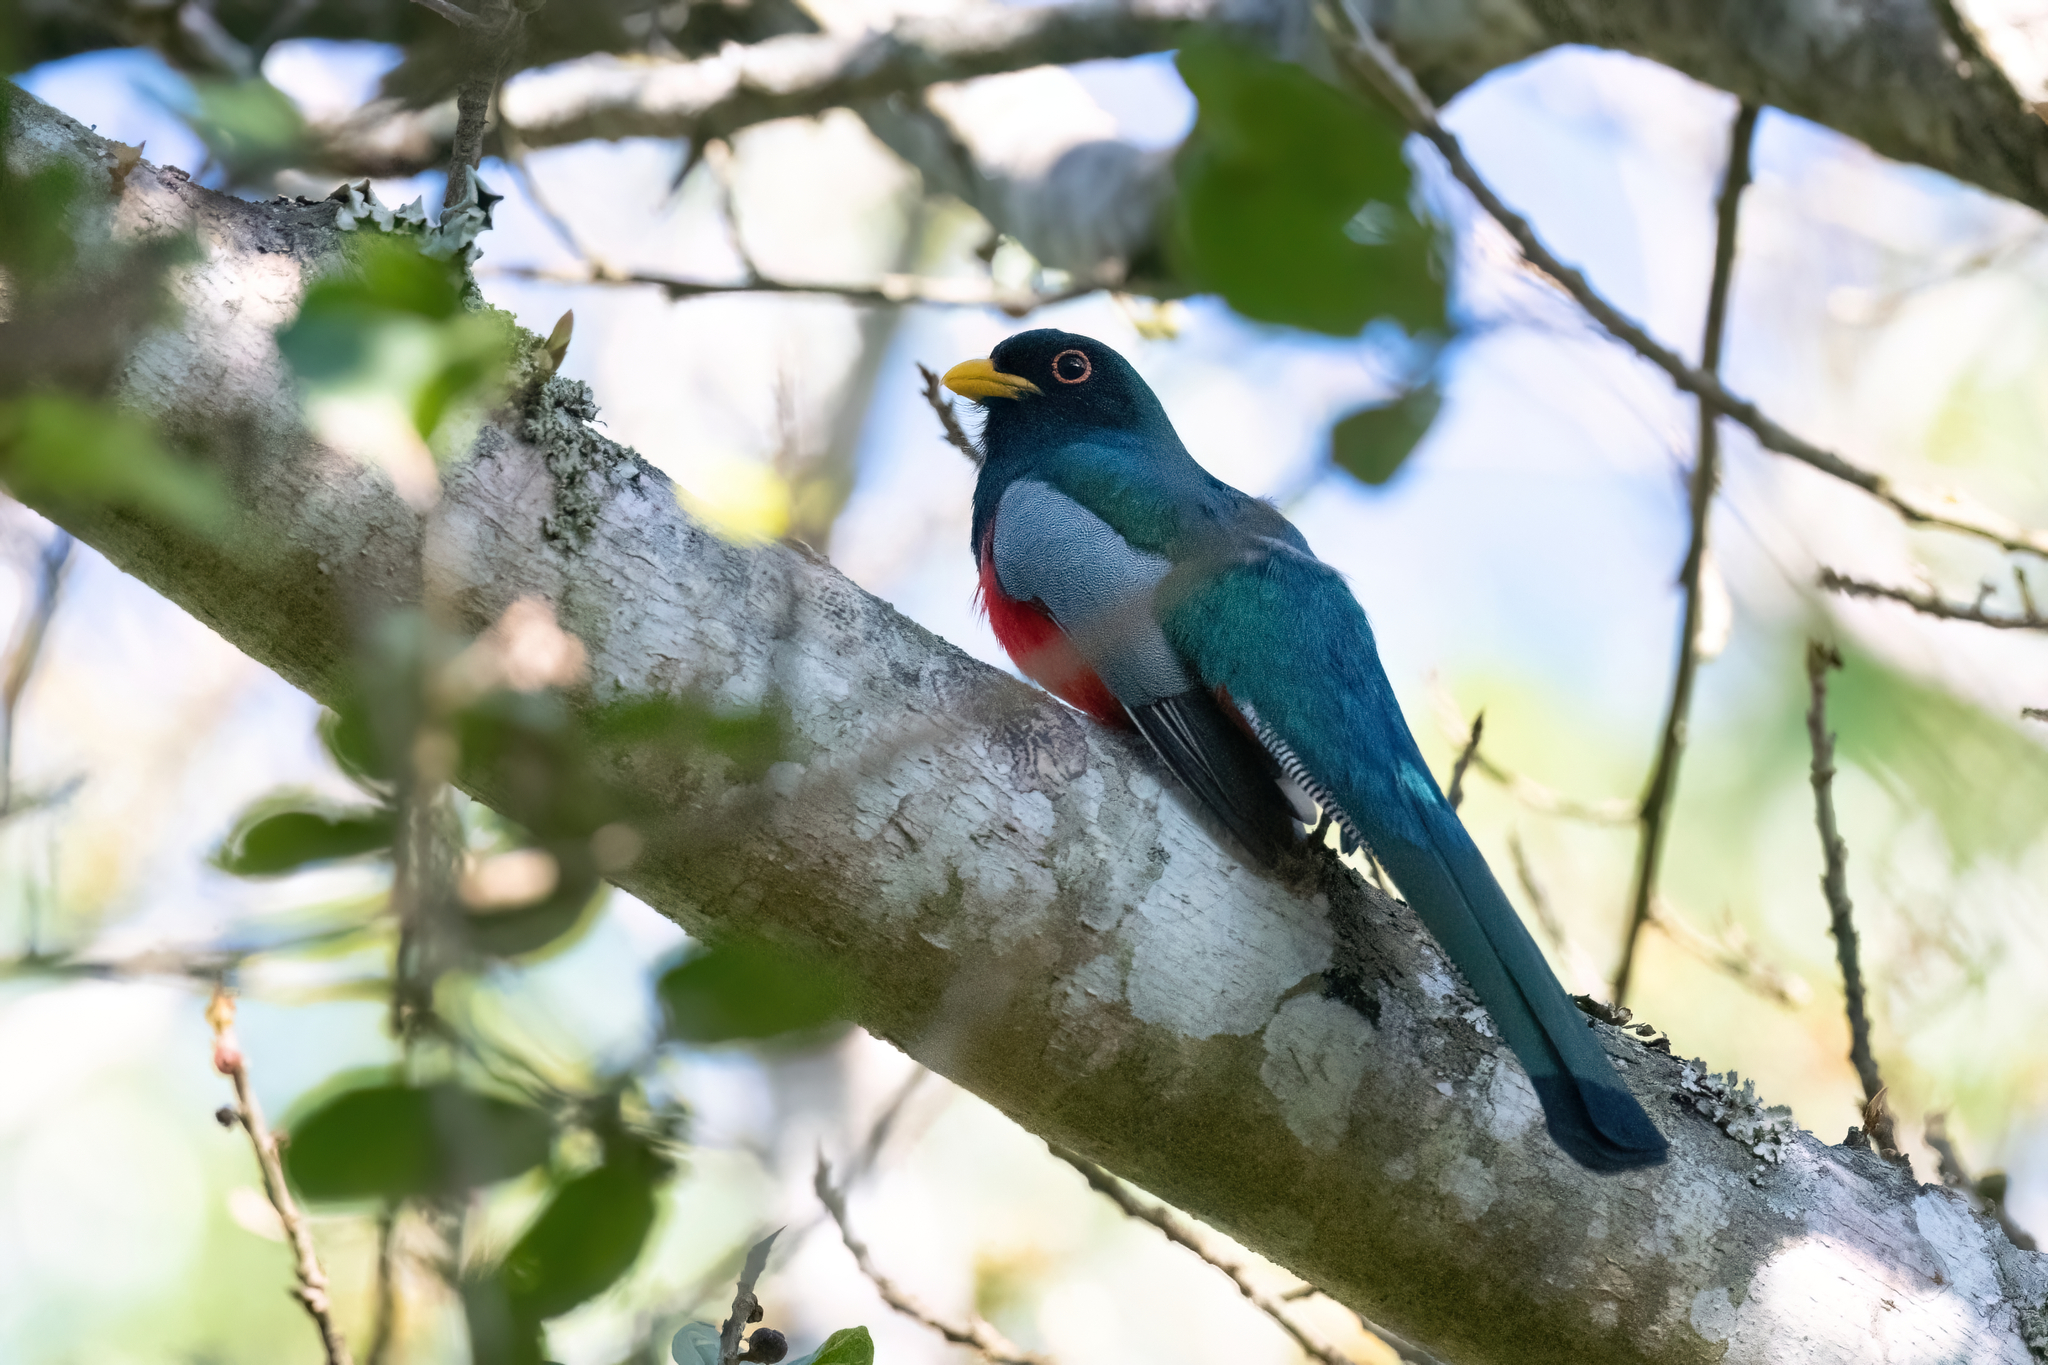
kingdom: Animalia
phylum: Chordata
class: Aves
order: Trogoniformes
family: Trogonidae
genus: Trogon
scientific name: Trogon elegans
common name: Elegant trogon
